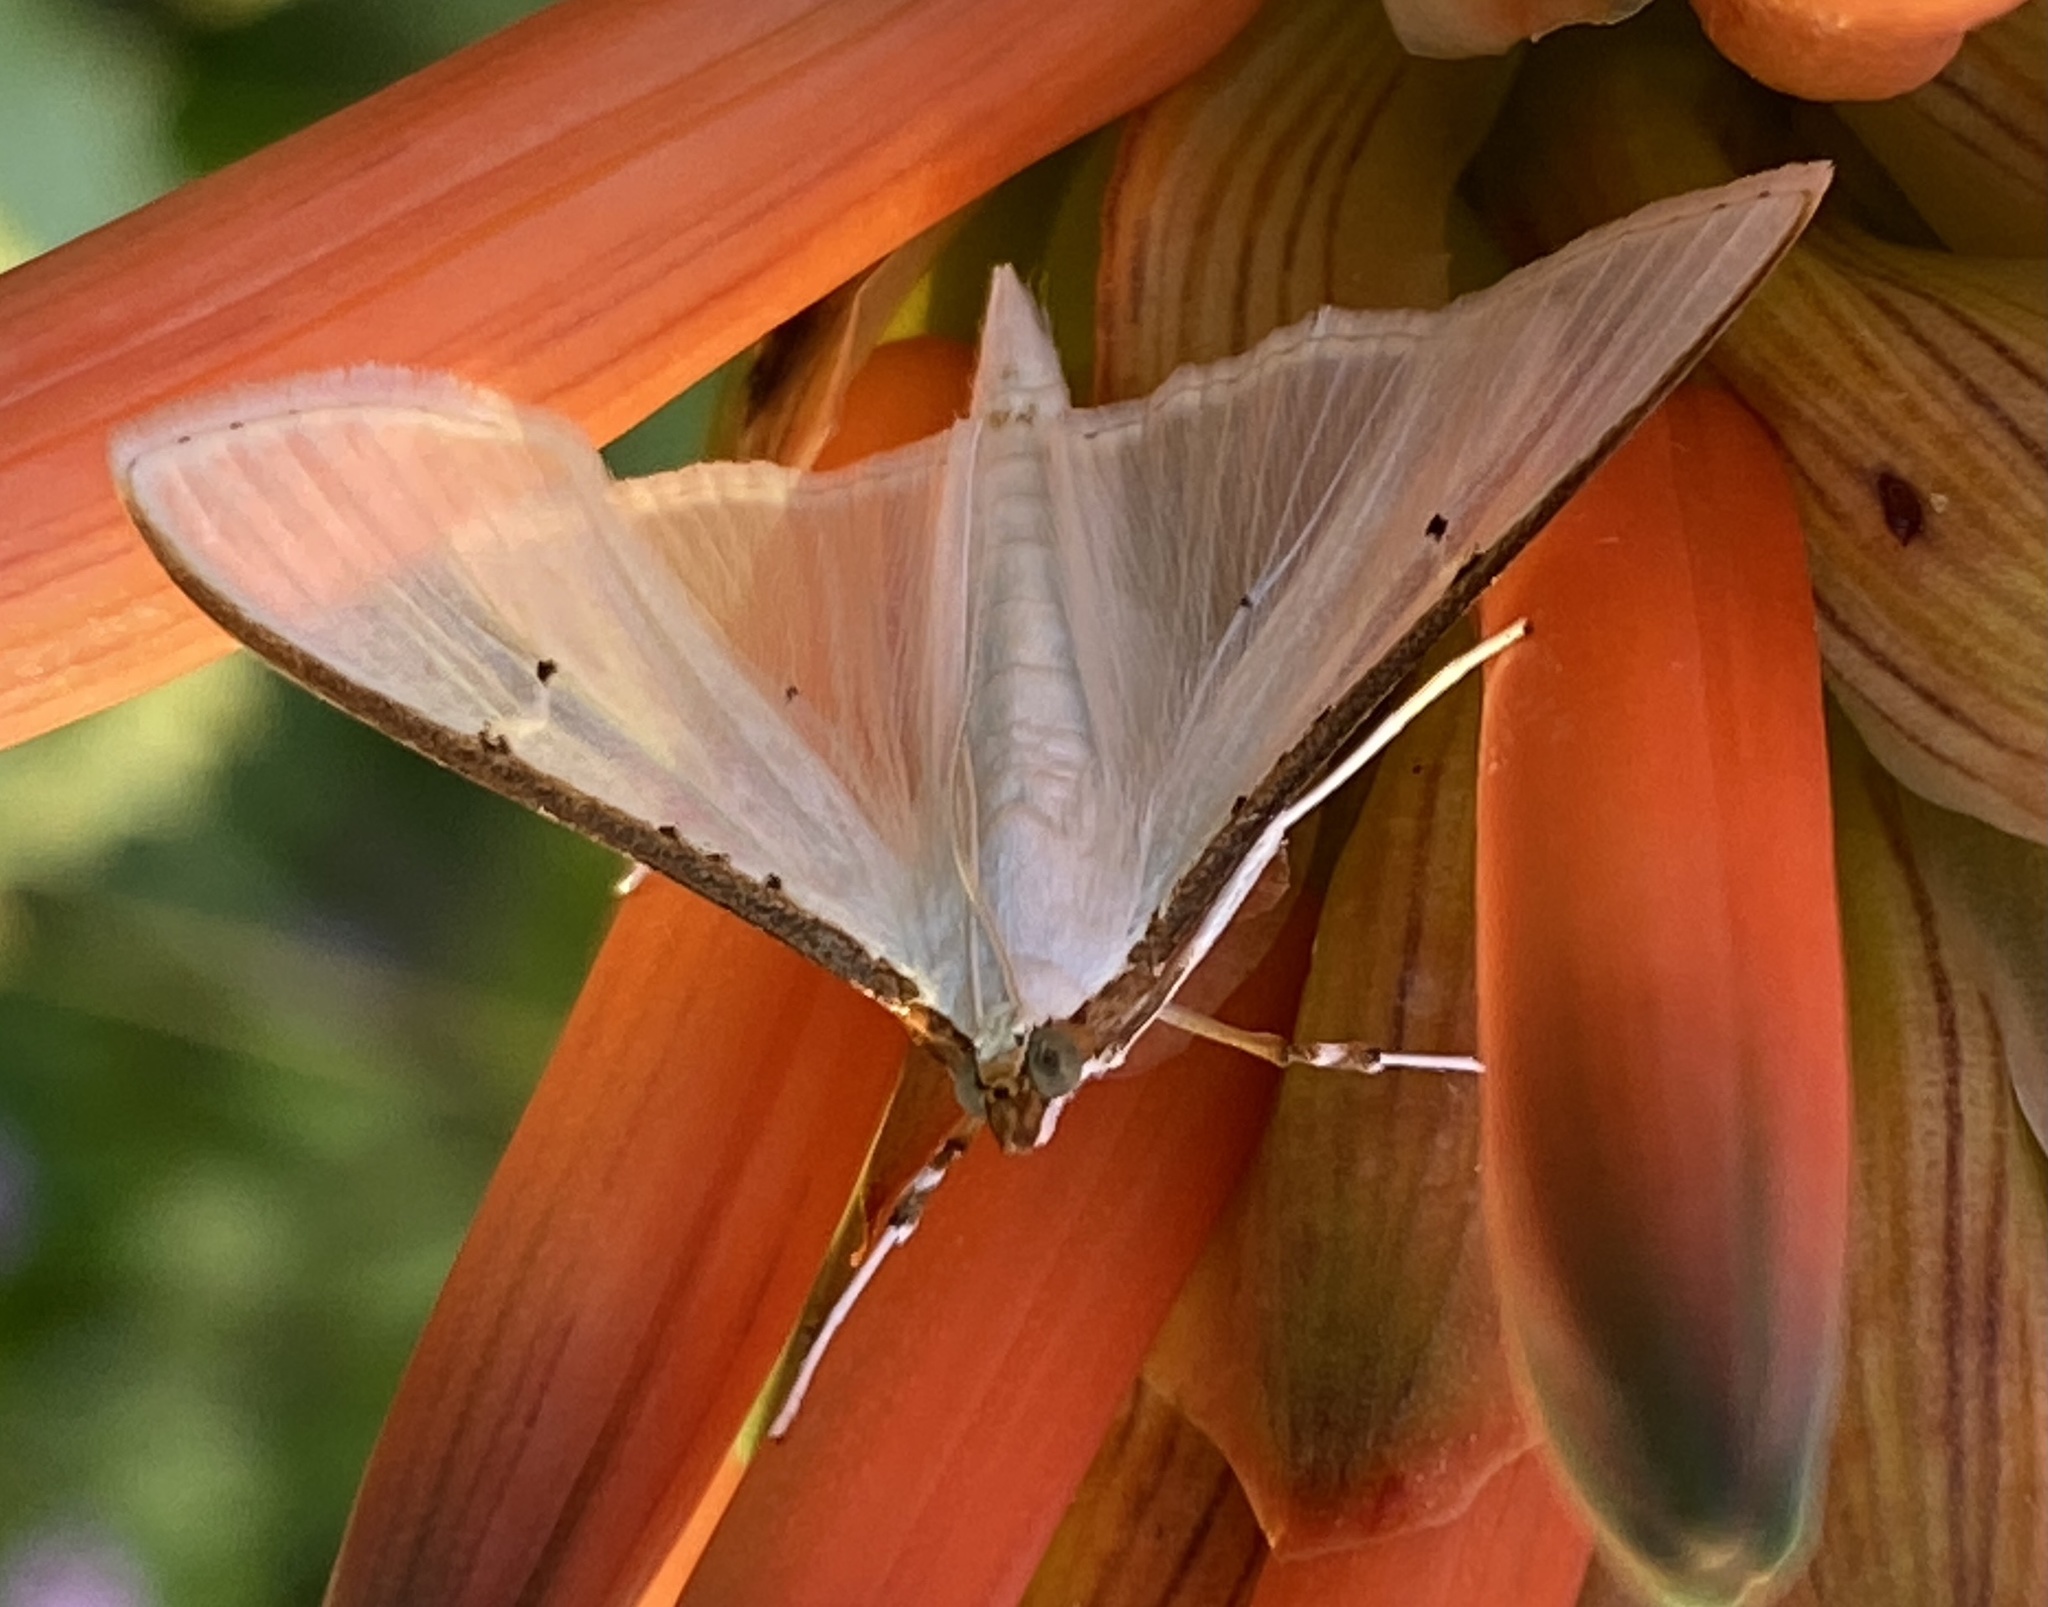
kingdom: Animalia
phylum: Arthropoda
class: Insecta
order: Lepidoptera
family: Crambidae
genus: Palpita
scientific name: Palpita vitrealis
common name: Olive-tree pearl
